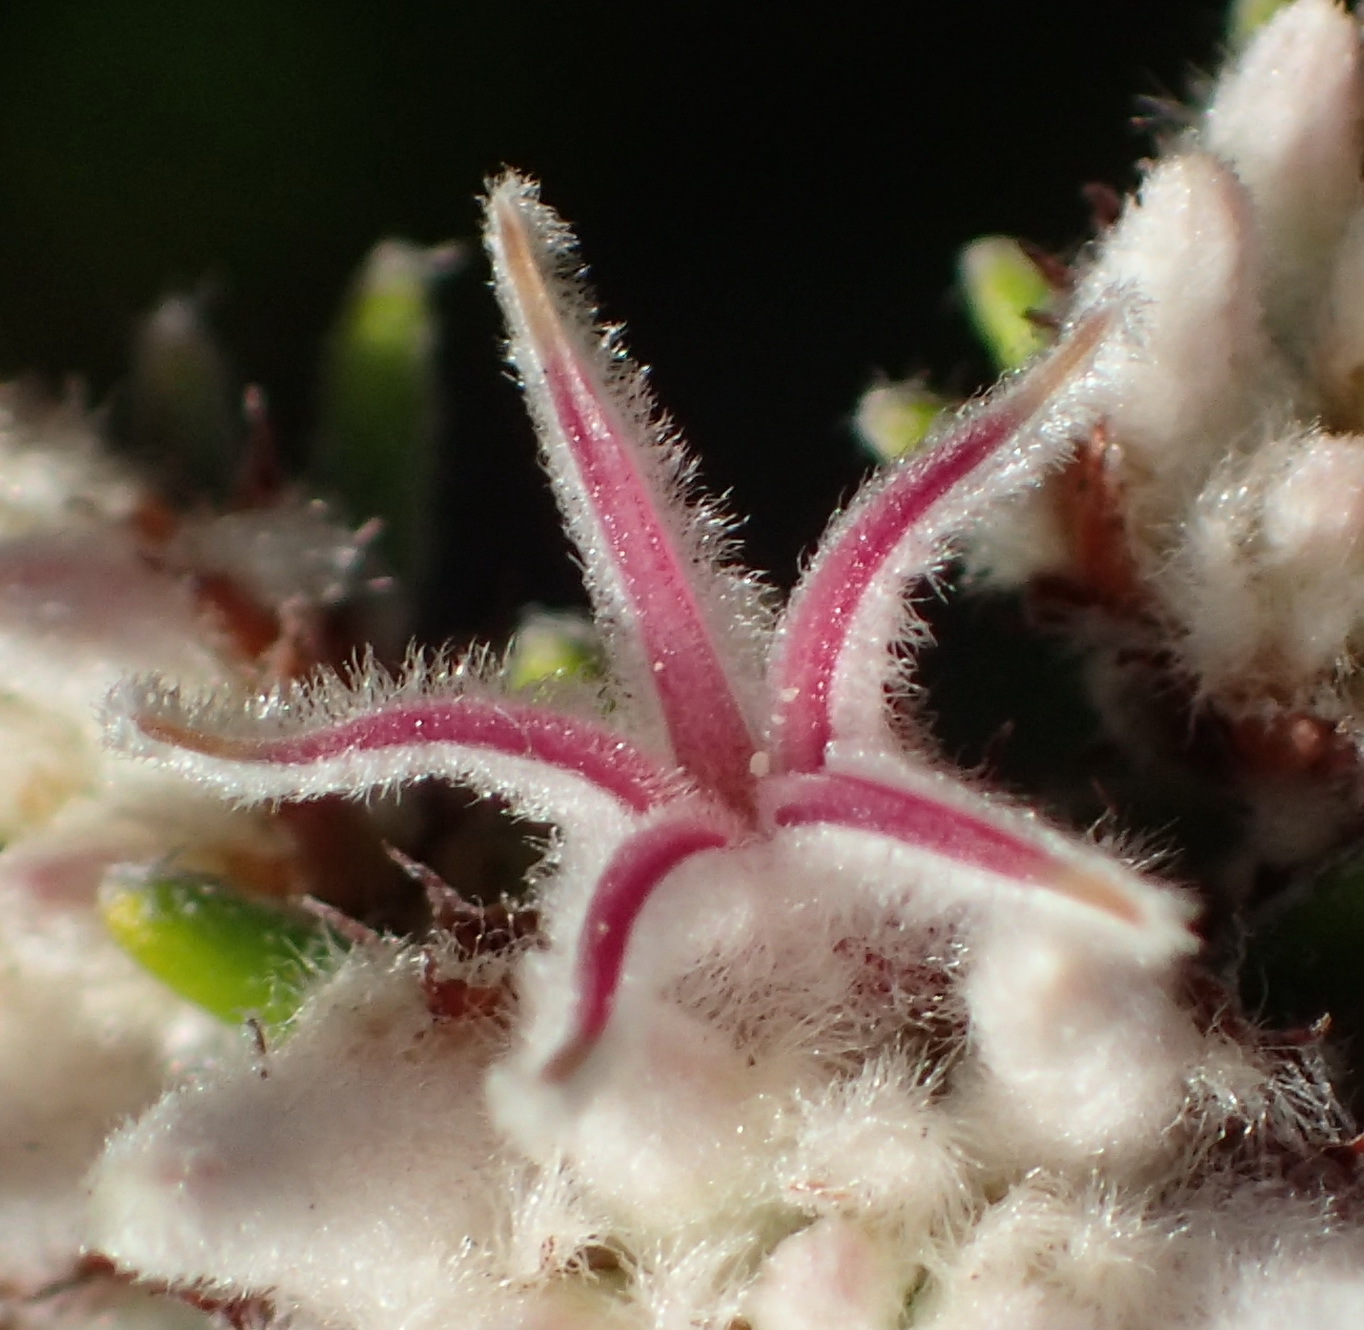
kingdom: Plantae
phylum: Tracheophyta
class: Magnoliopsida
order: Rosales
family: Rhamnaceae
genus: Trichocephalus
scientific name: Trichocephalus stipularis
